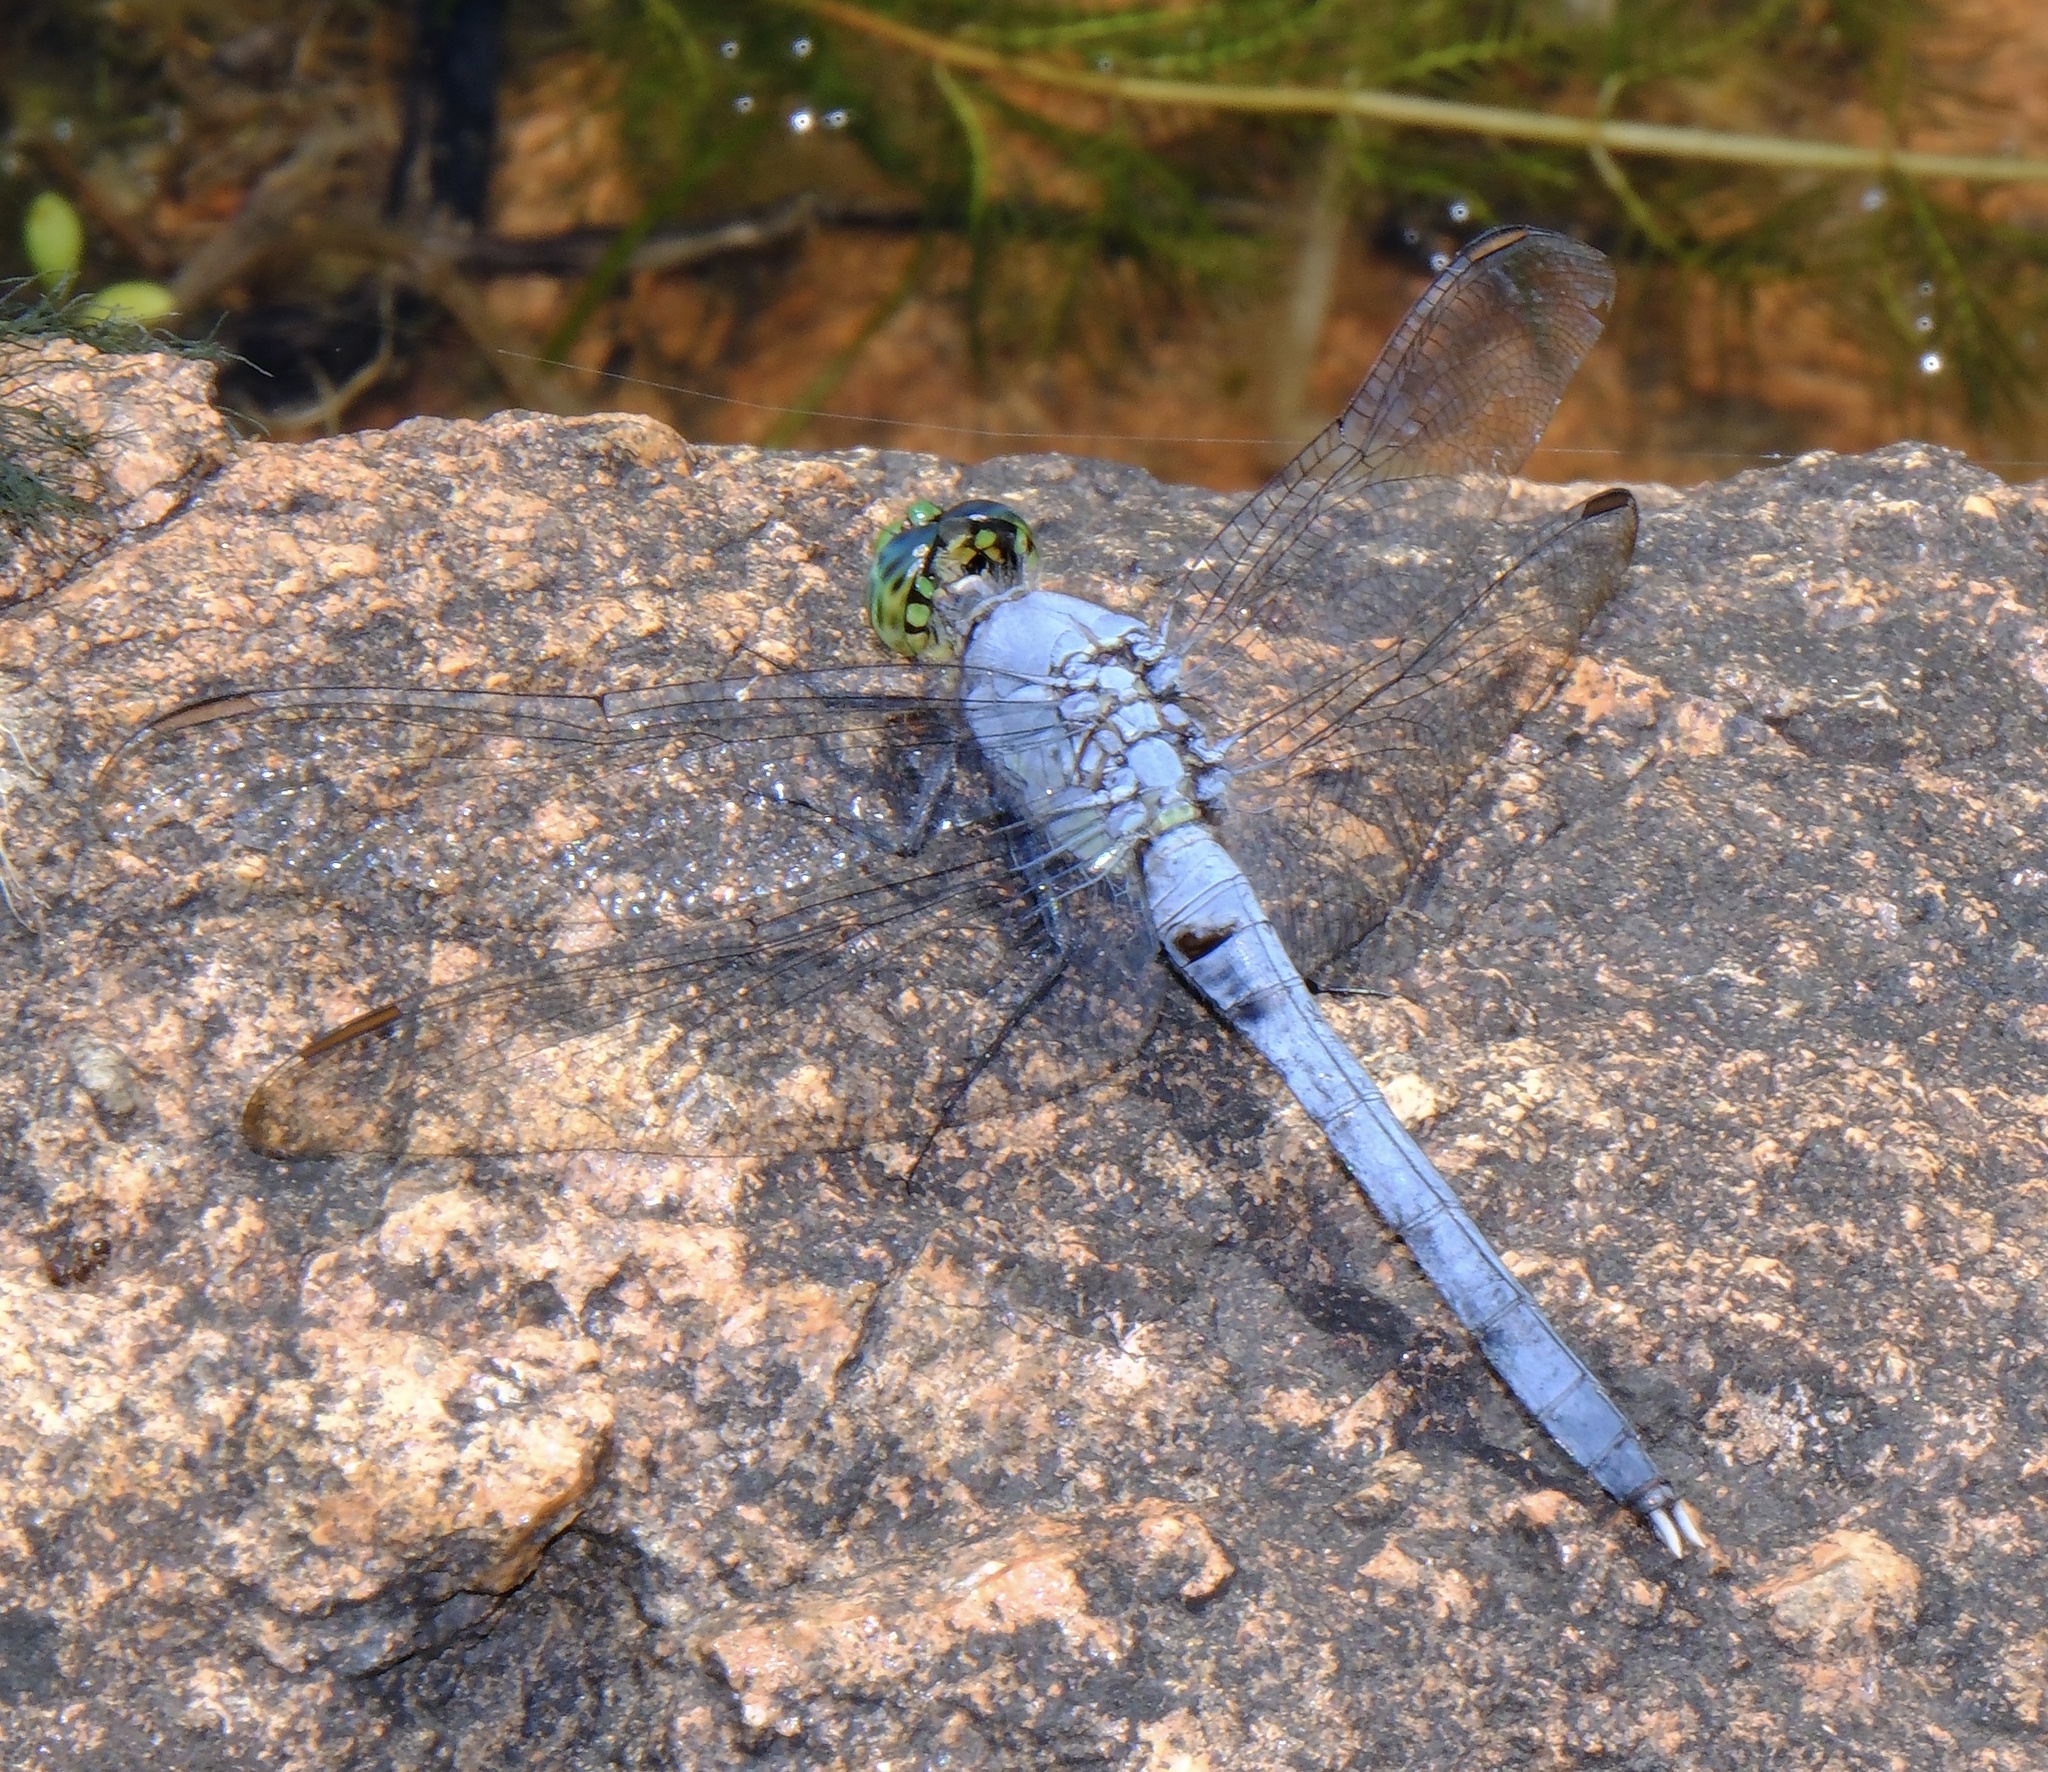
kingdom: Animalia
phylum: Arthropoda
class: Insecta
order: Odonata
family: Libellulidae
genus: Erythemis
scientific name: Erythemis simplicicollis
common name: Eastern pondhawk
